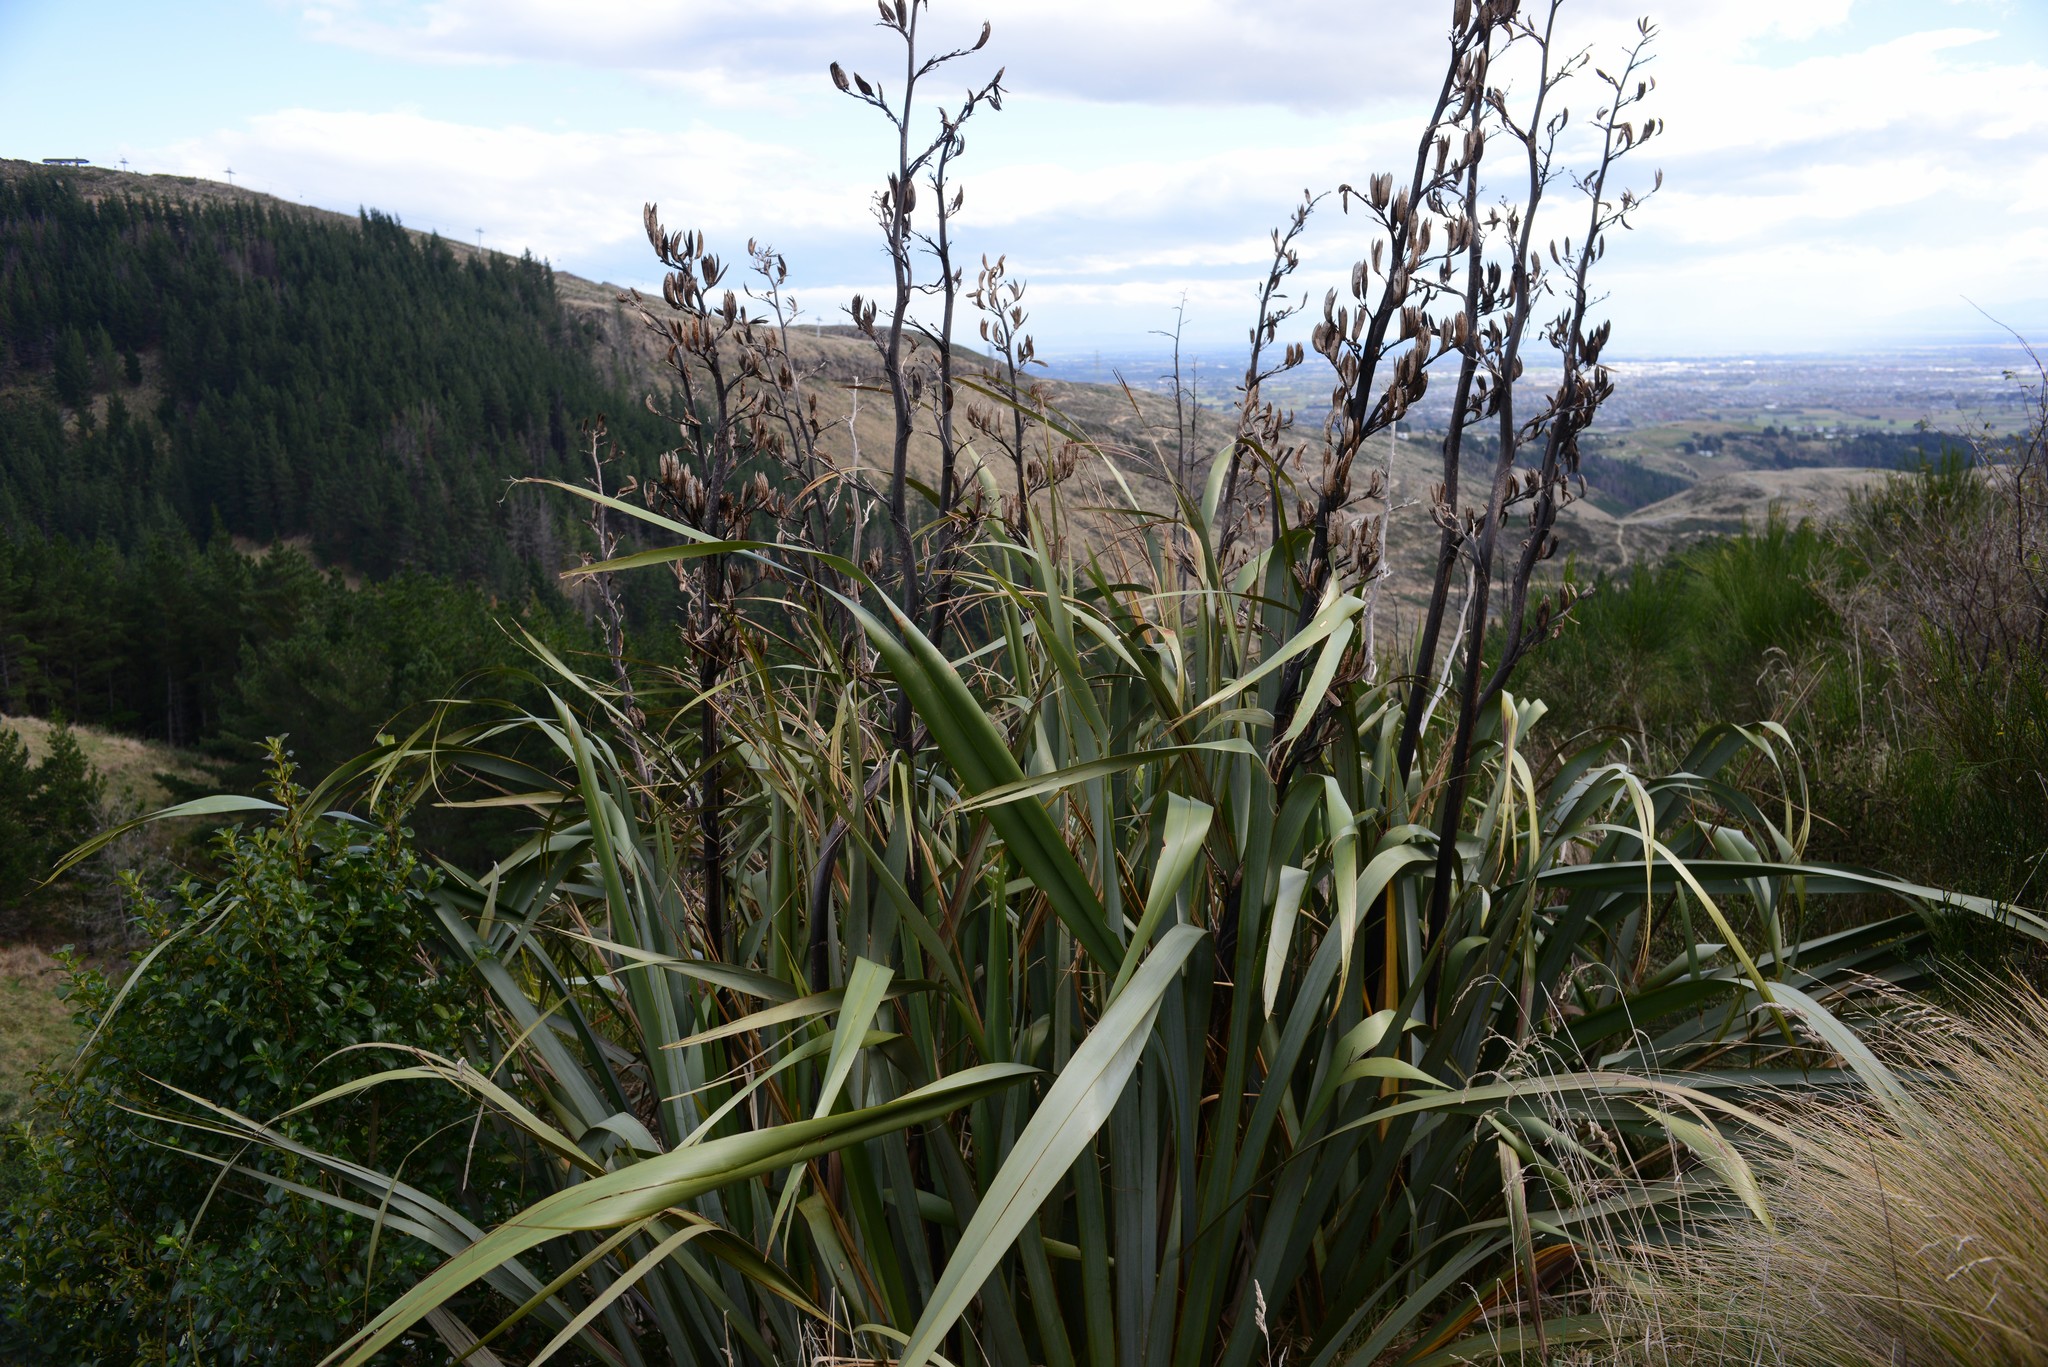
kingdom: Plantae
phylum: Tracheophyta
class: Liliopsida
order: Asparagales
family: Asphodelaceae
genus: Phormium
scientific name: Phormium tenax
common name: New zealand flax
